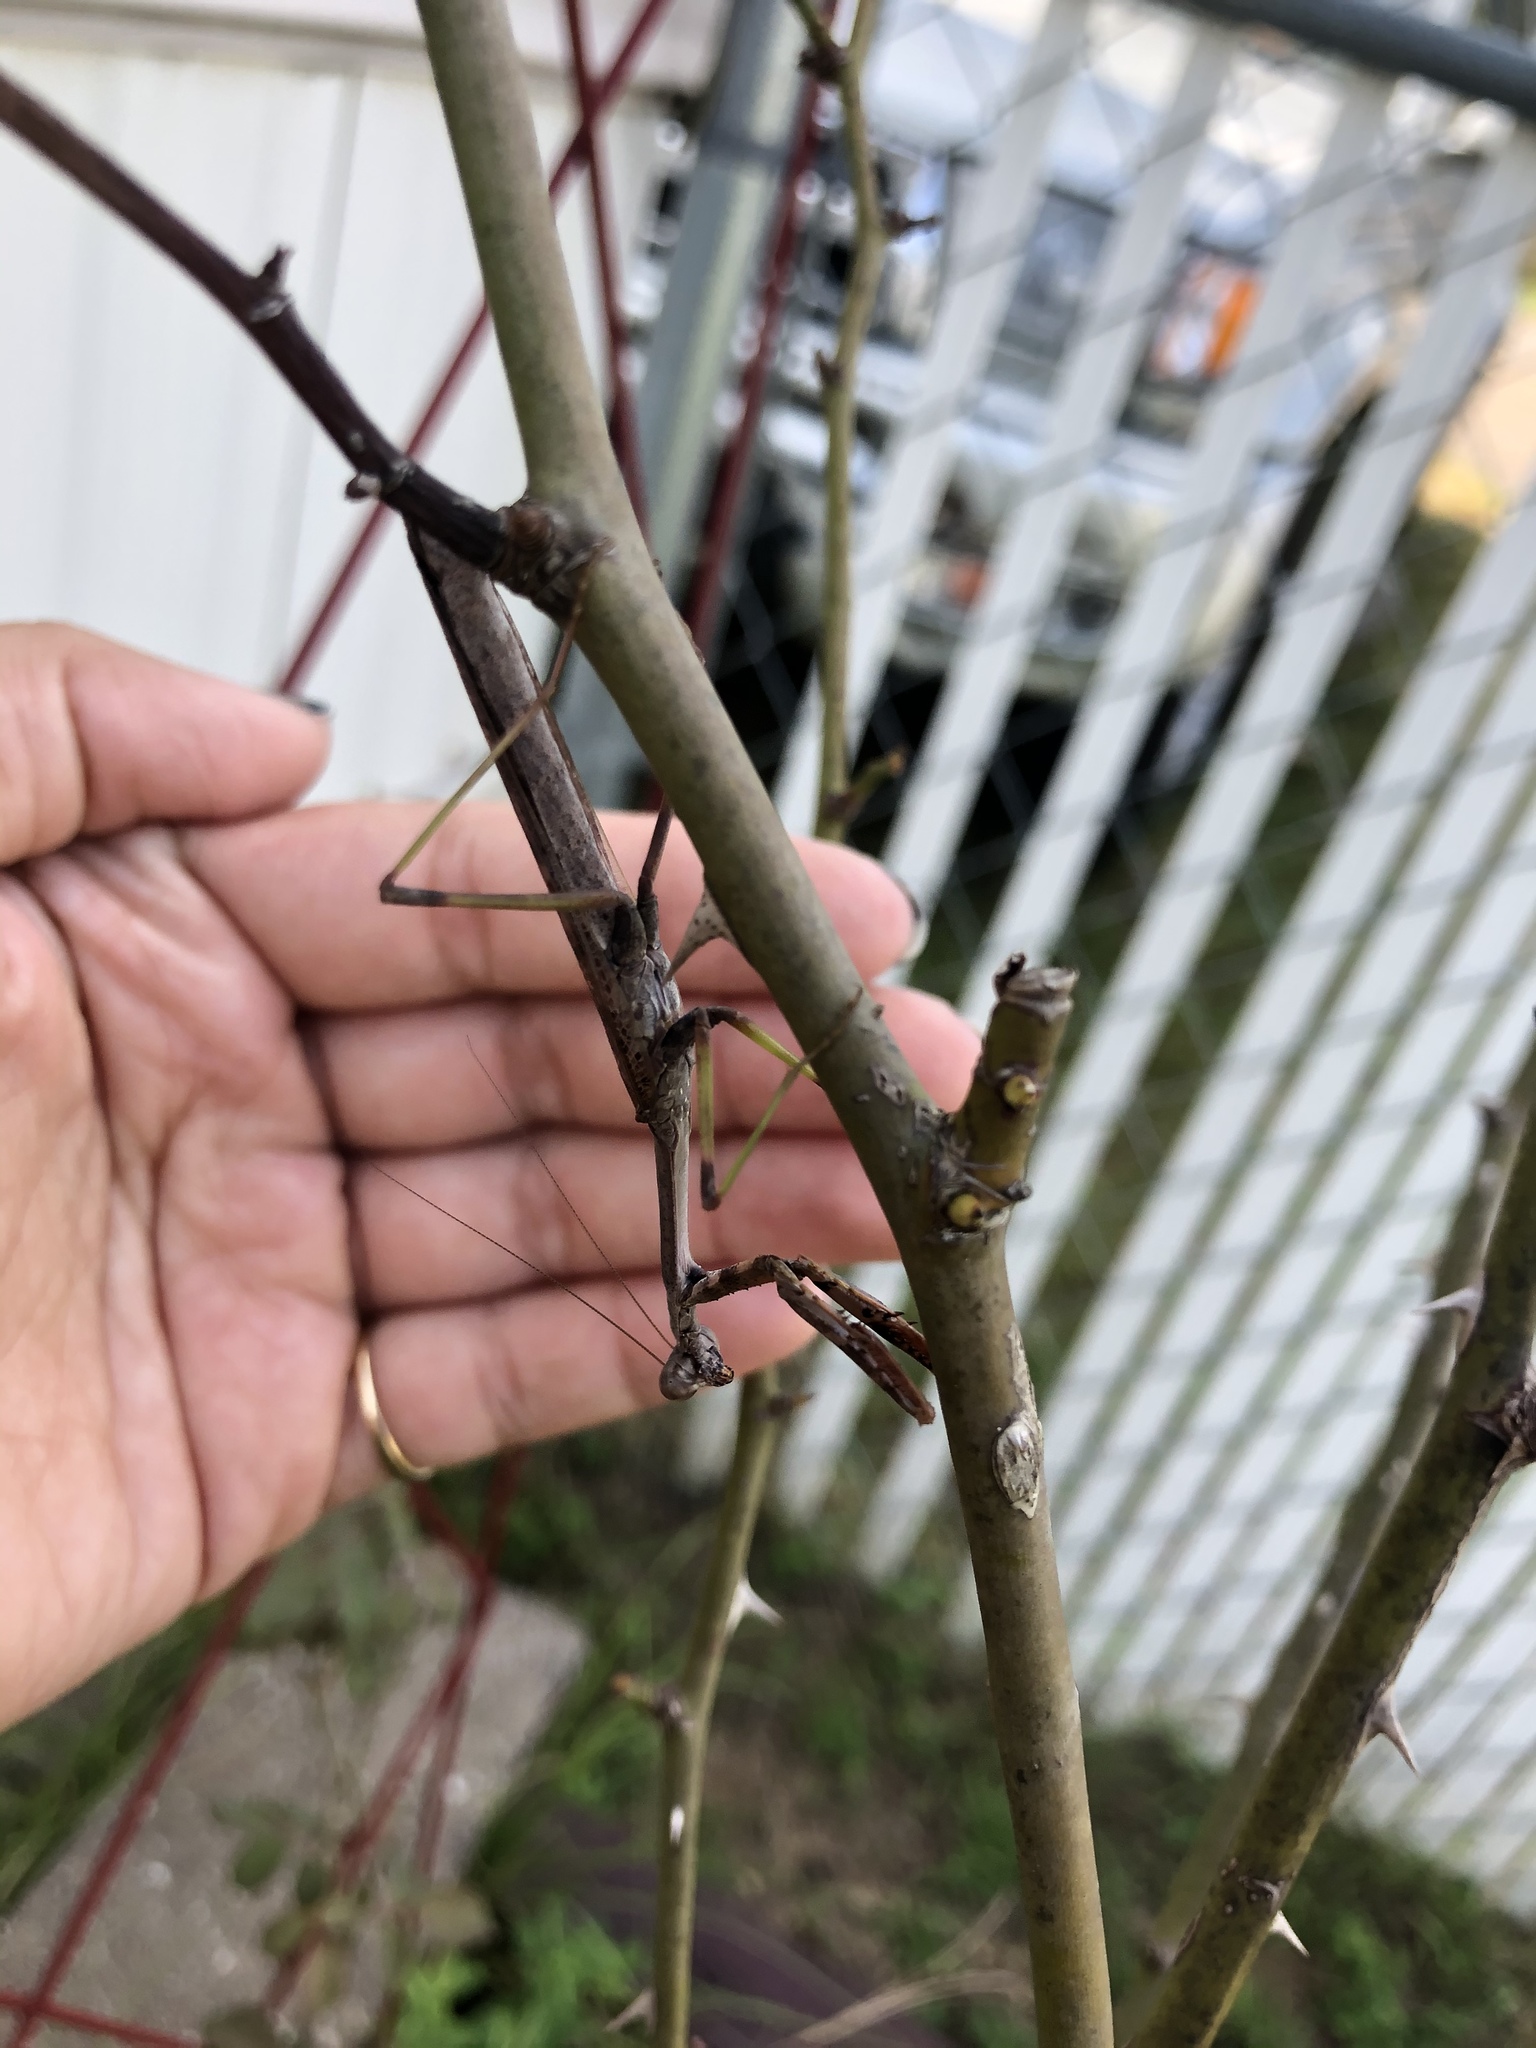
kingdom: Animalia
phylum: Arthropoda
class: Insecta
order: Mantodea
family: Mantidae
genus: Stagmomantis
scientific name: Stagmomantis carolina
